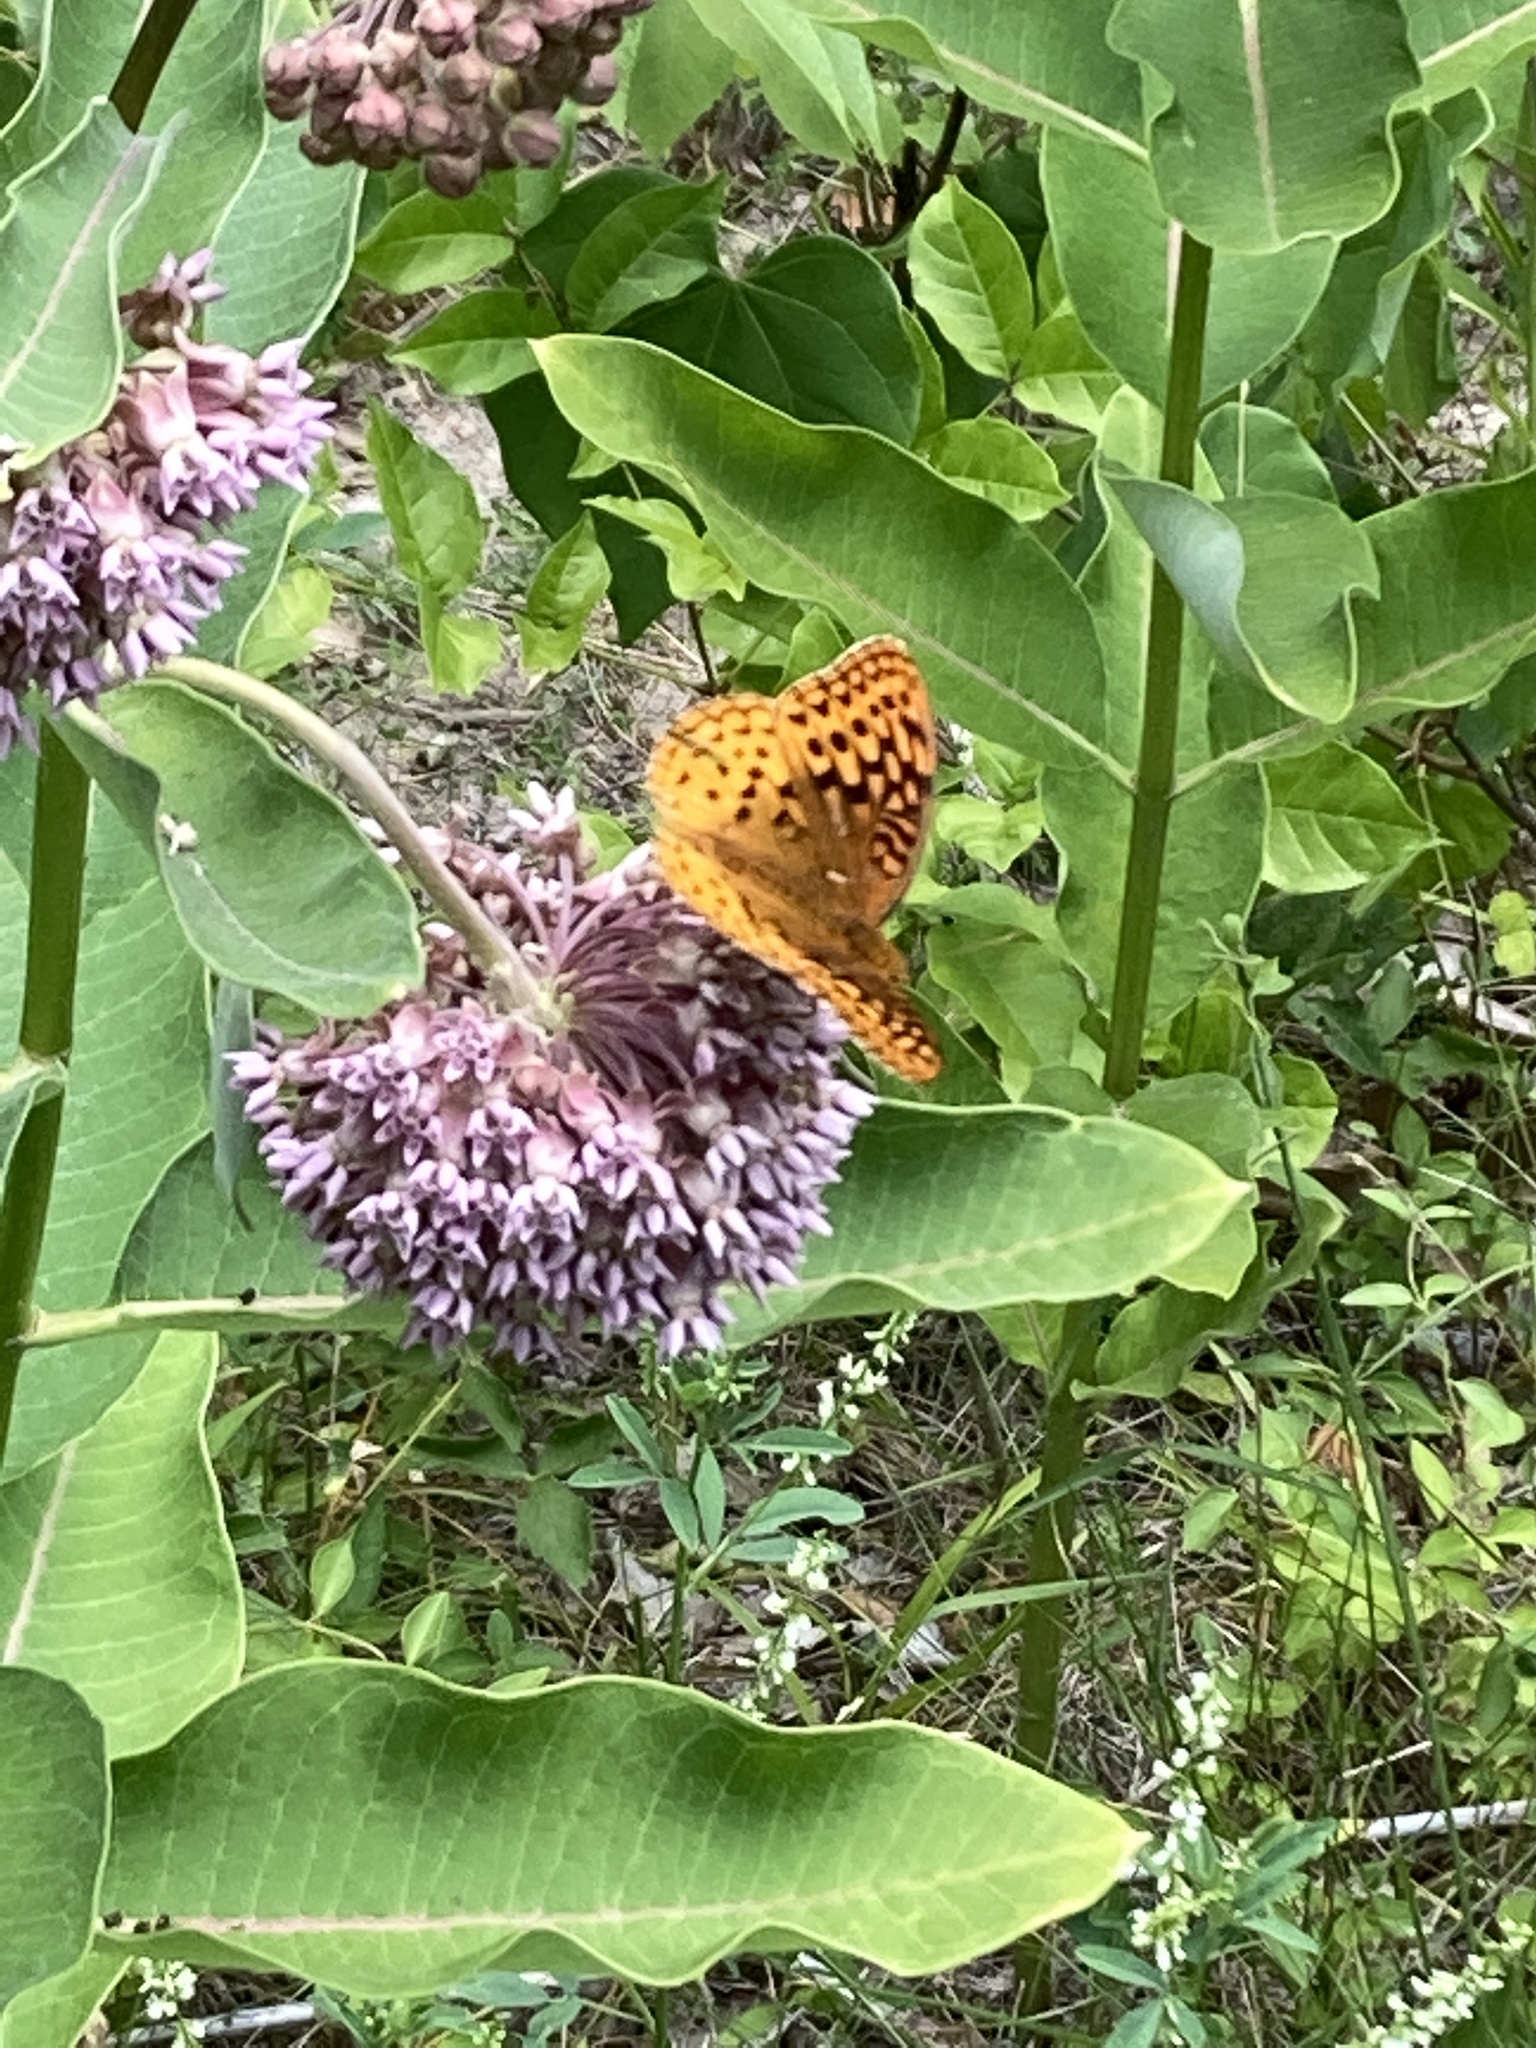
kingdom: Animalia
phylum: Arthropoda
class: Insecta
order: Lepidoptera
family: Nymphalidae
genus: Speyeria
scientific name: Speyeria cybele
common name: Great spangled fritillary
